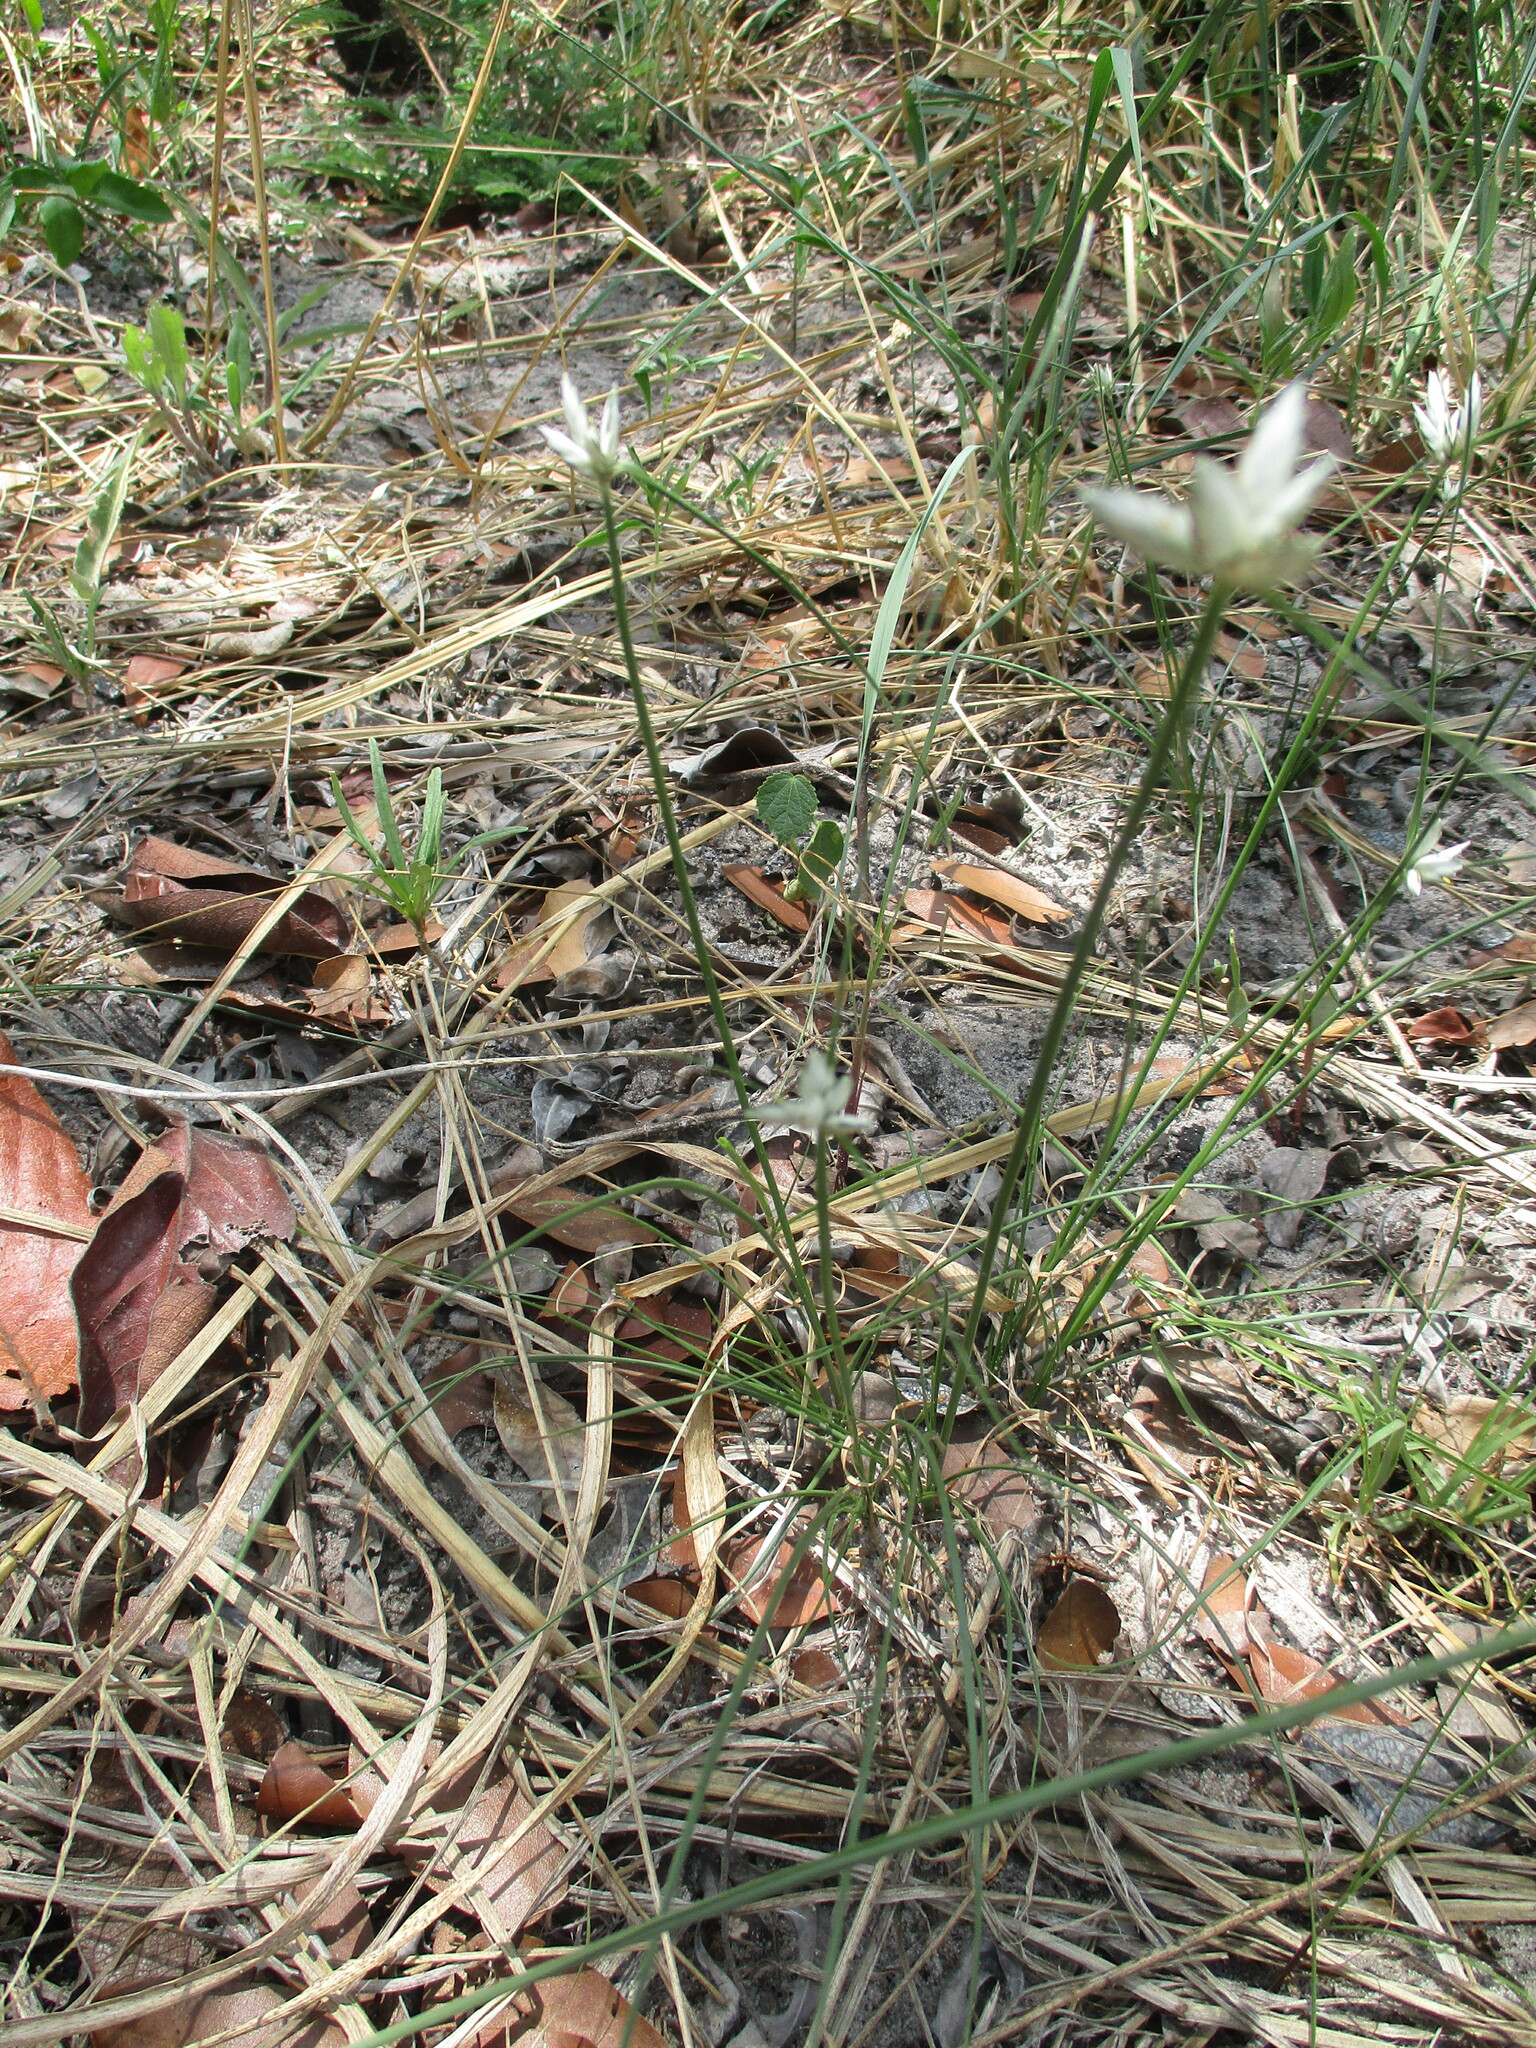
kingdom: Plantae
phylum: Tracheophyta
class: Liliopsida
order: Poales
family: Cyperaceae
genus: Cyperus
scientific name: Cyperus margaritaceus
